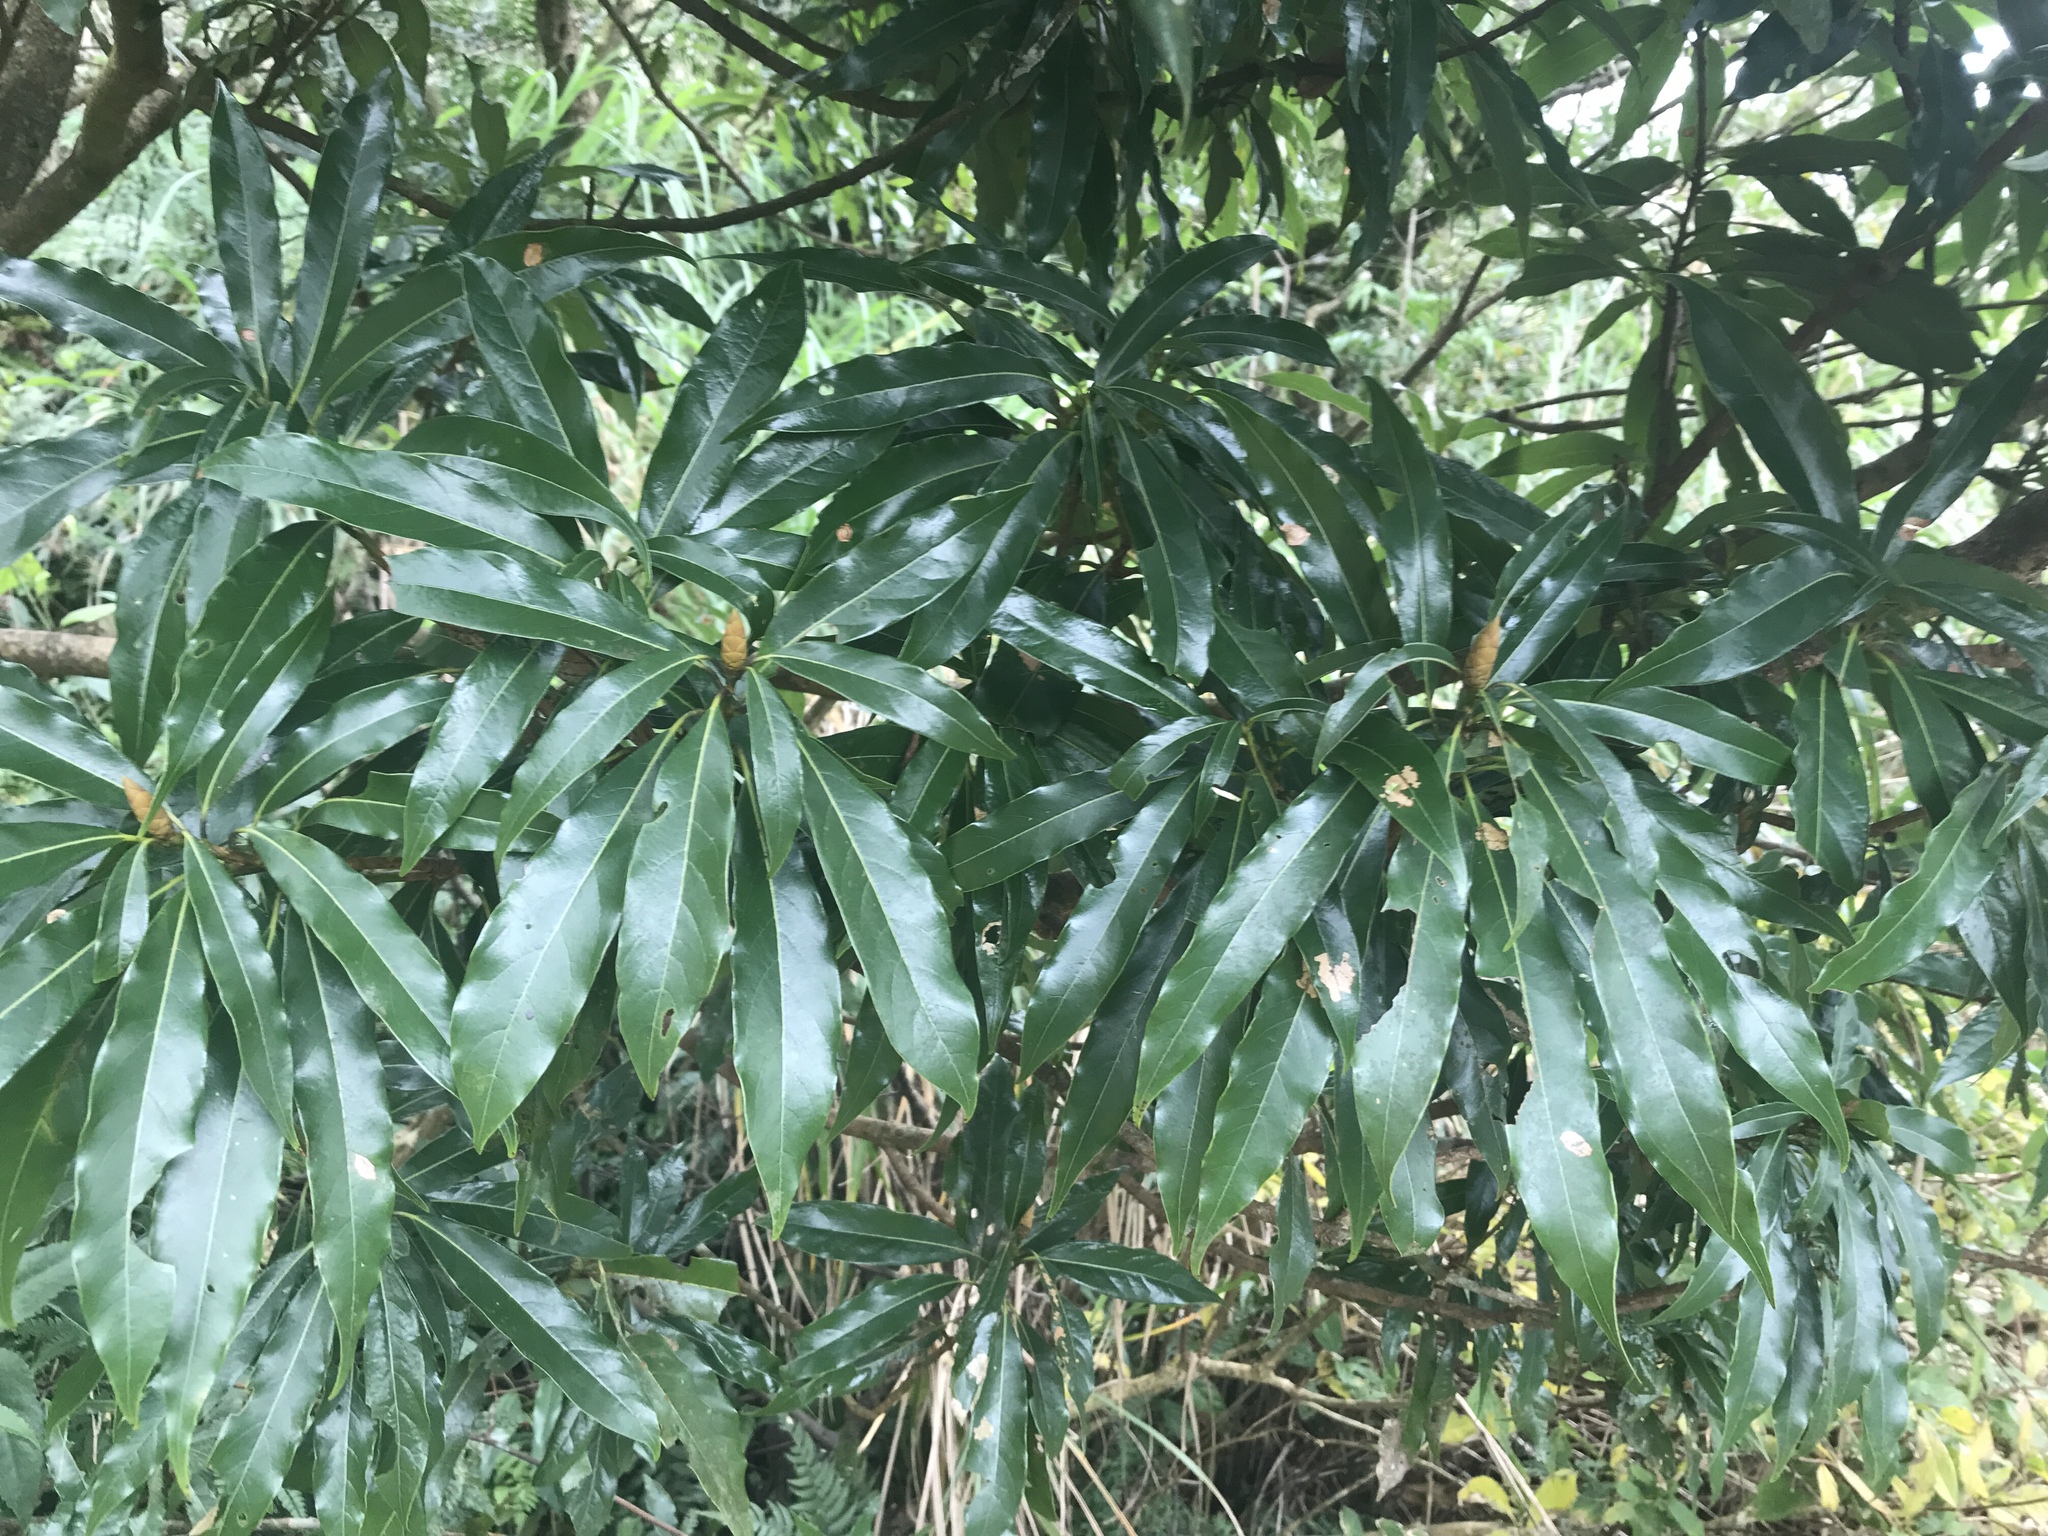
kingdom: Plantae
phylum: Tracheophyta
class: Magnoliopsida
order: Laurales
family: Lauraceae
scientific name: Lauraceae
